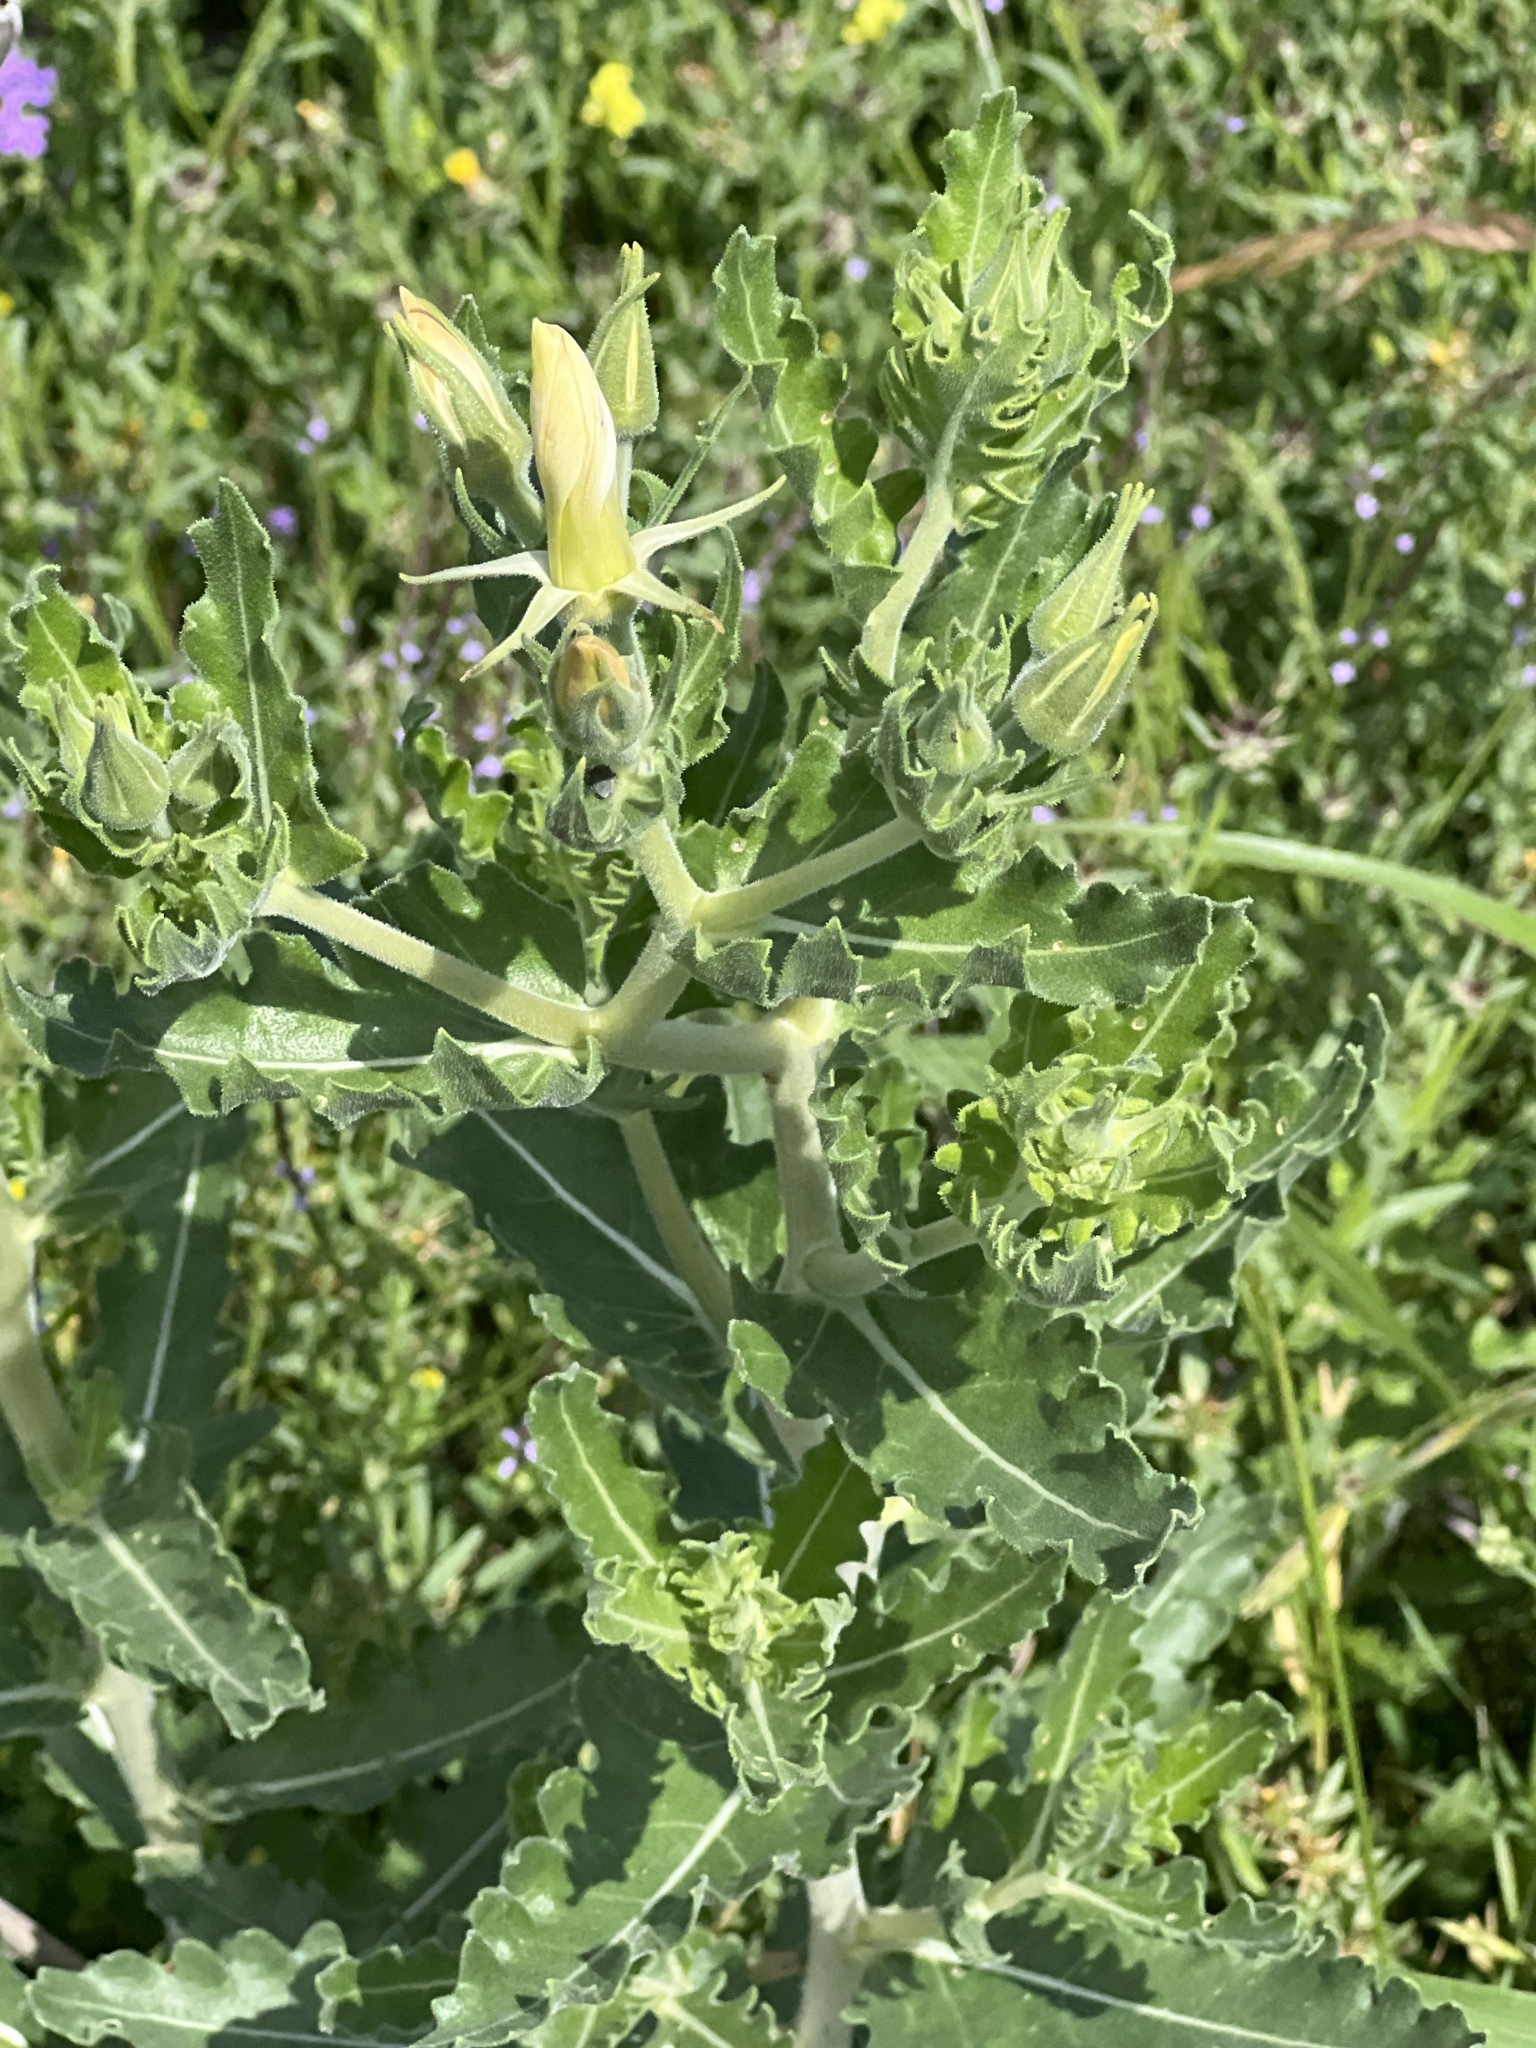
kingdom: Plantae
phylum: Tracheophyta
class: Magnoliopsida
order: Cornales
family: Loasaceae
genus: Mentzelia
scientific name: Mentzelia albescens
